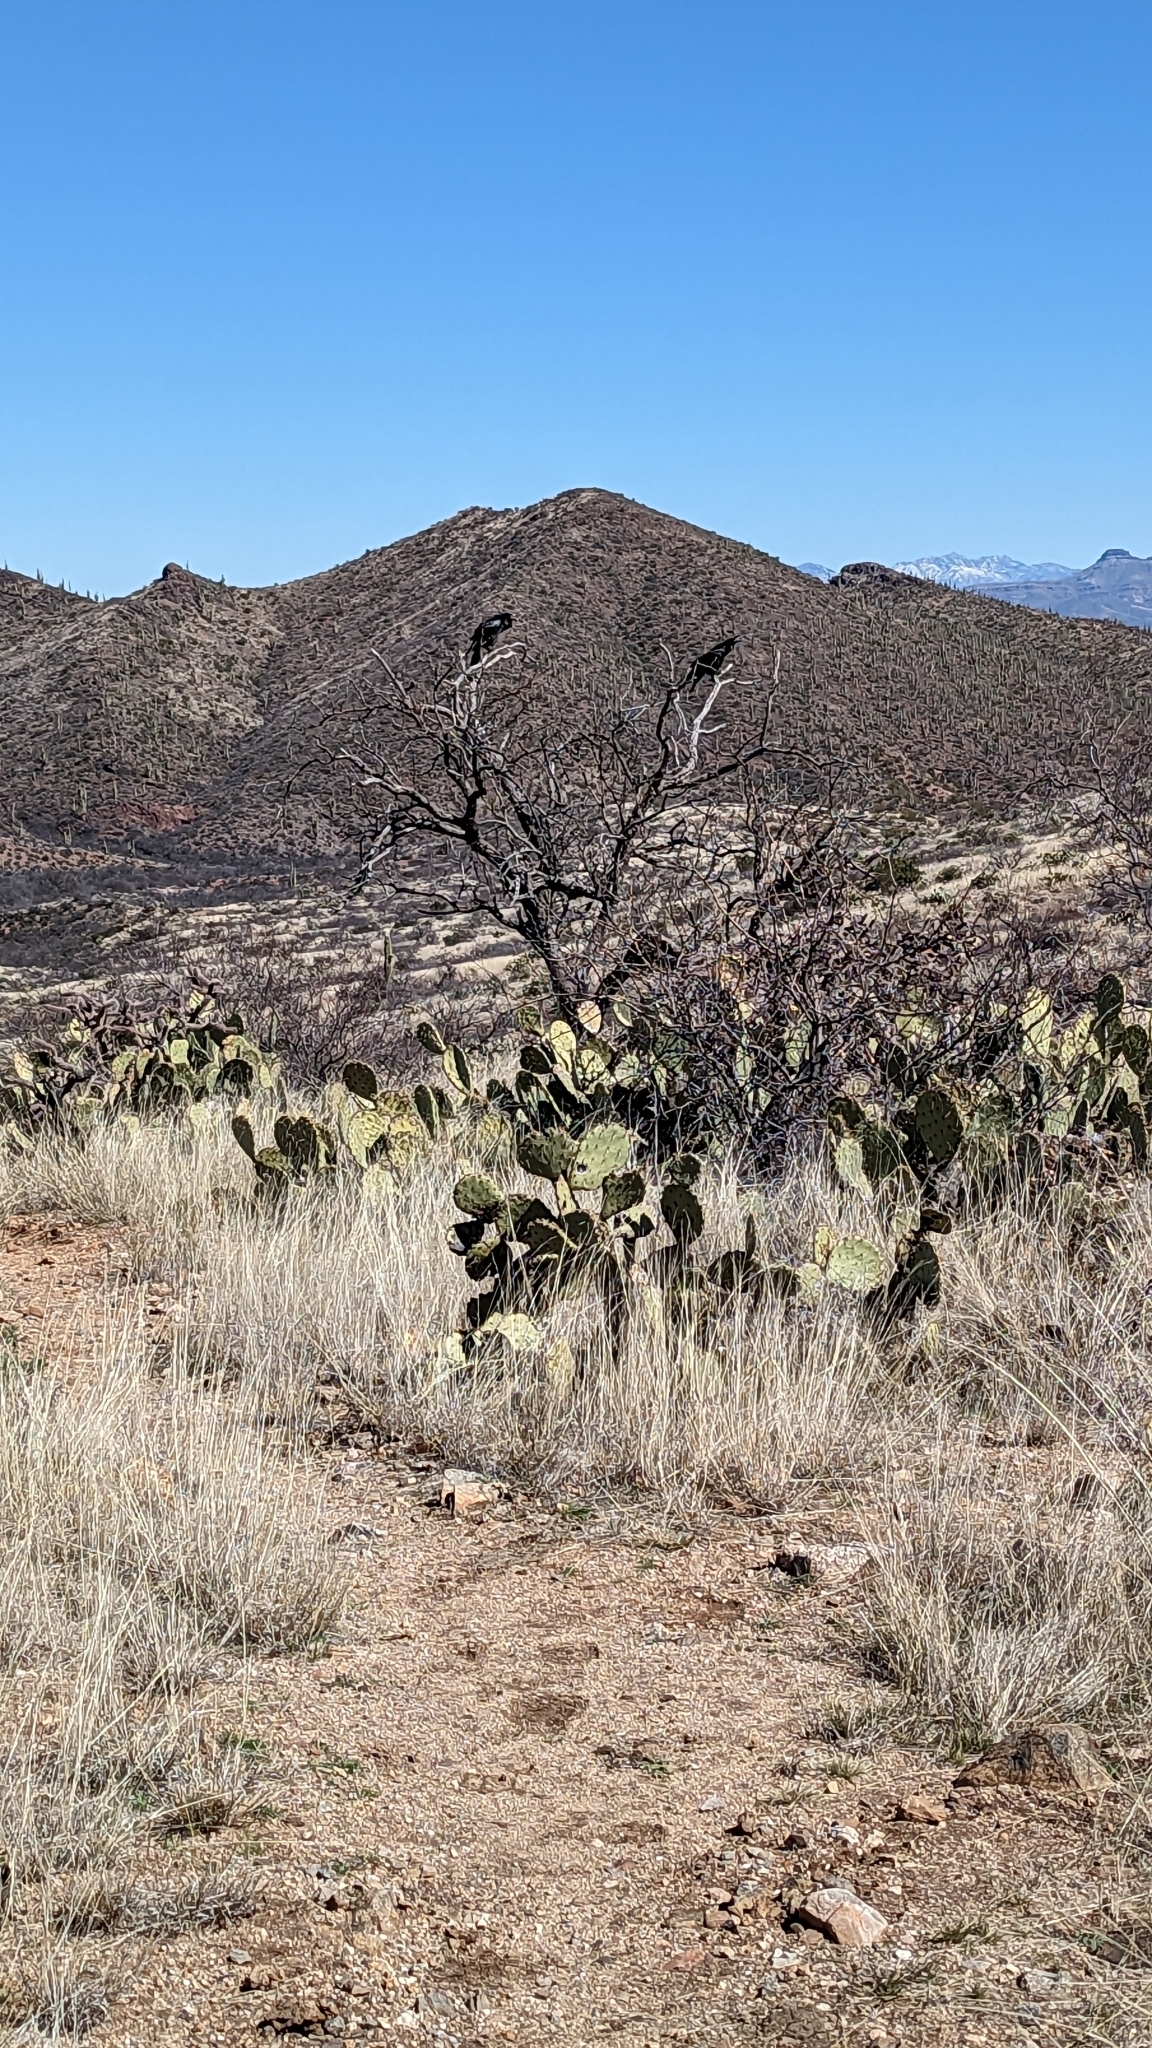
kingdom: Animalia
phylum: Chordata
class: Aves
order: Passeriformes
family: Corvidae
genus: Corvus
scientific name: Corvus corax
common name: Common raven
